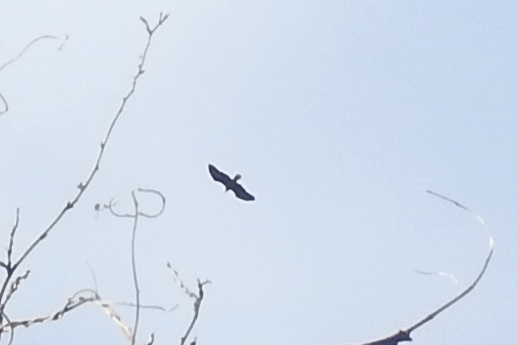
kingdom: Animalia
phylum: Chordata
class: Aves
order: Accipitriformes
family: Accipitridae
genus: Haliaeetus
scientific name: Haliaeetus leucocephalus
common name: Bald eagle
